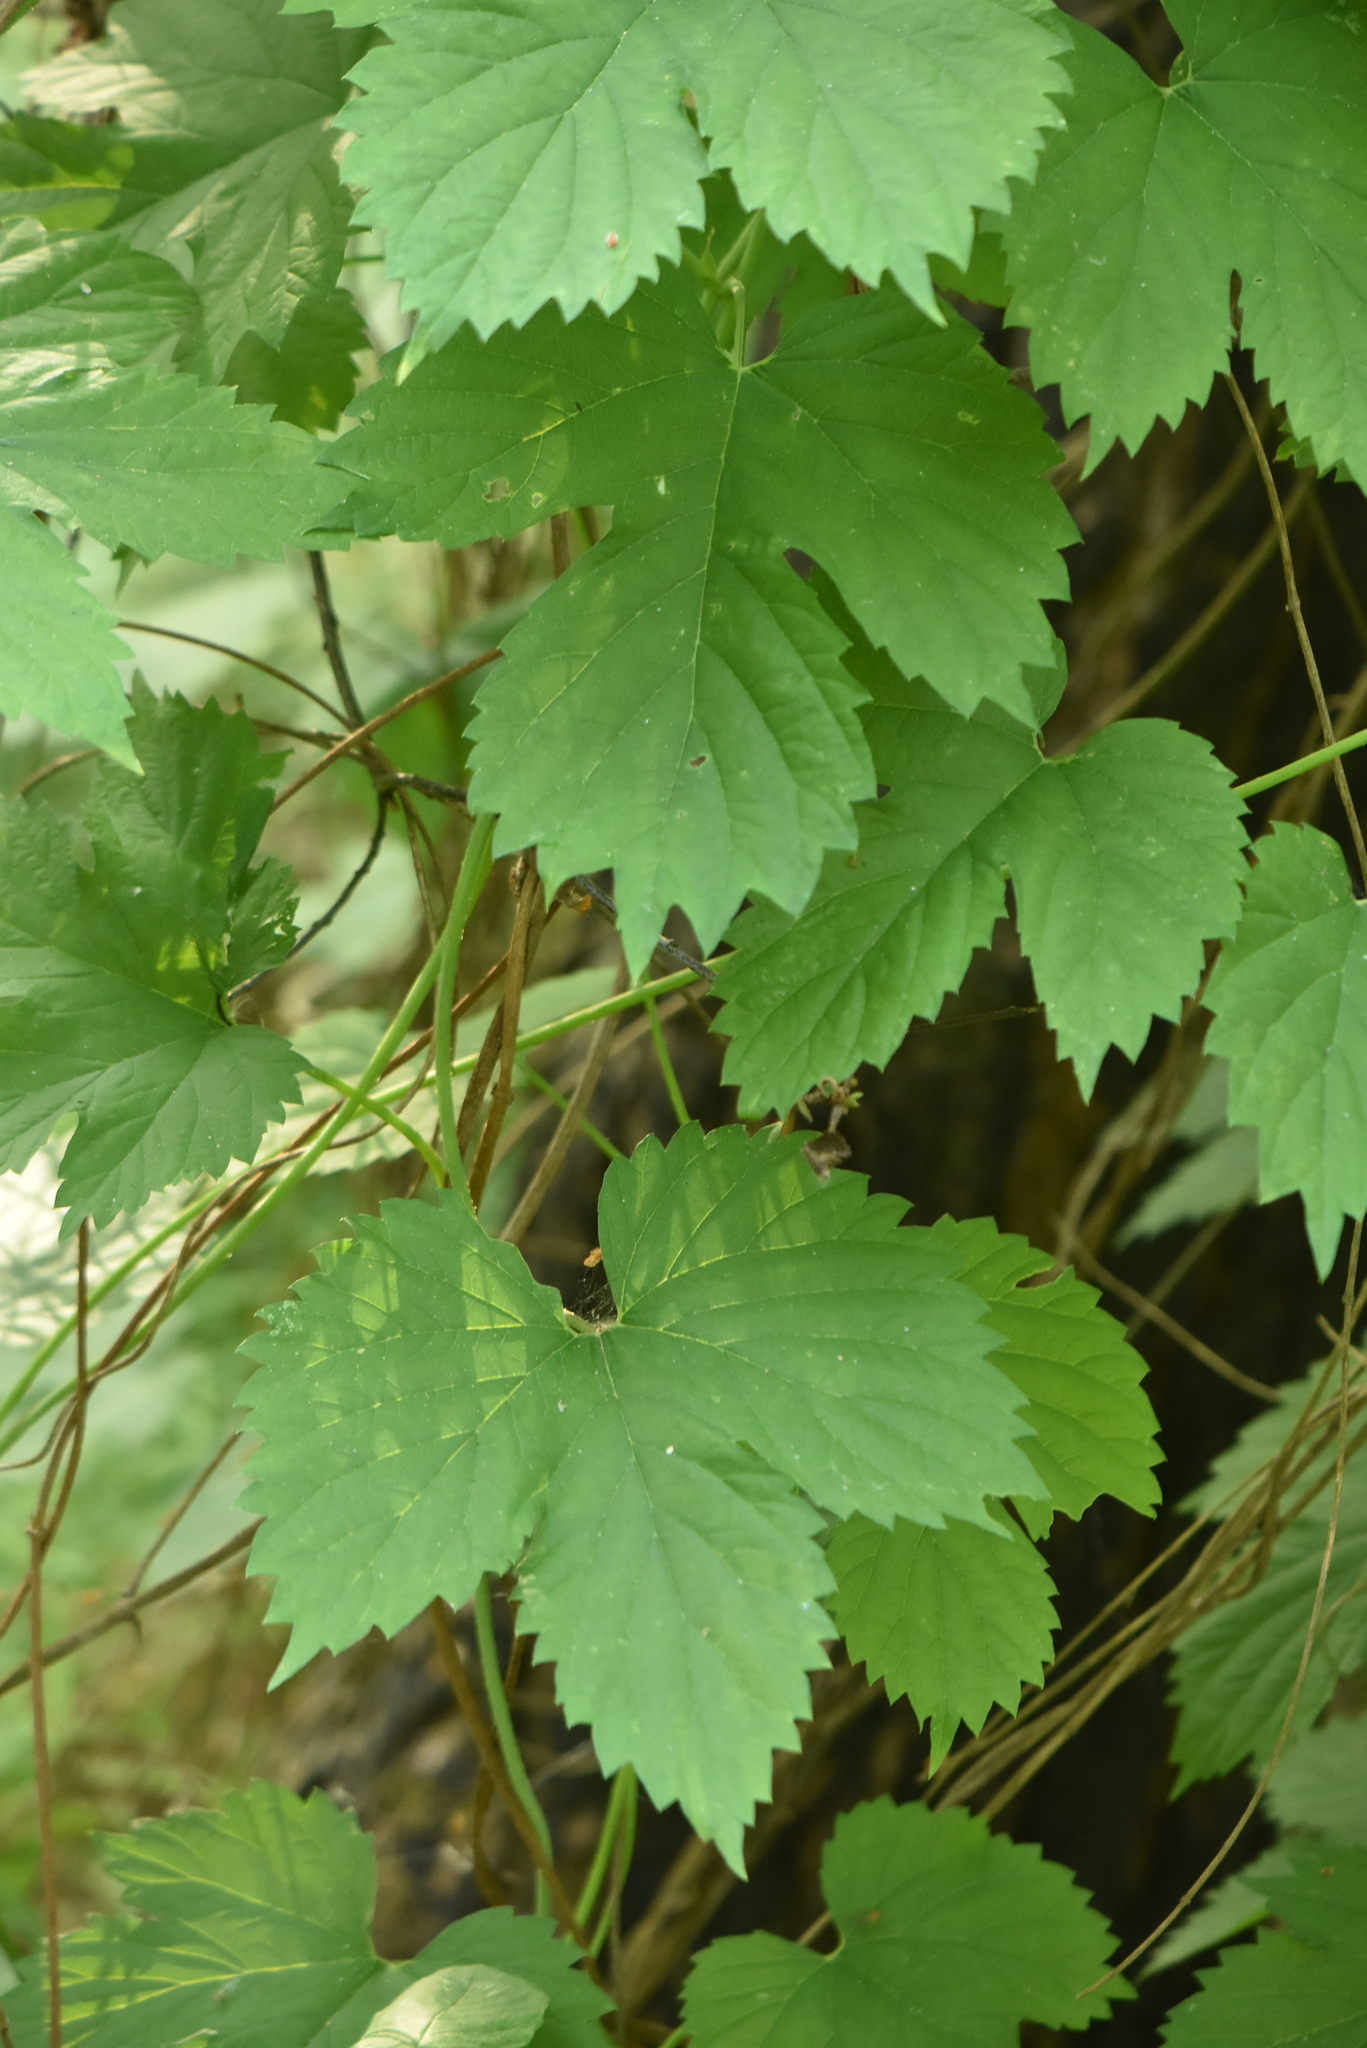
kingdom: Plantae
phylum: Tracheophyta
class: Magnoliopsida
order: Rosales
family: Cannabaceae
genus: Humulus
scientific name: Humulus lupulus
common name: Hop
